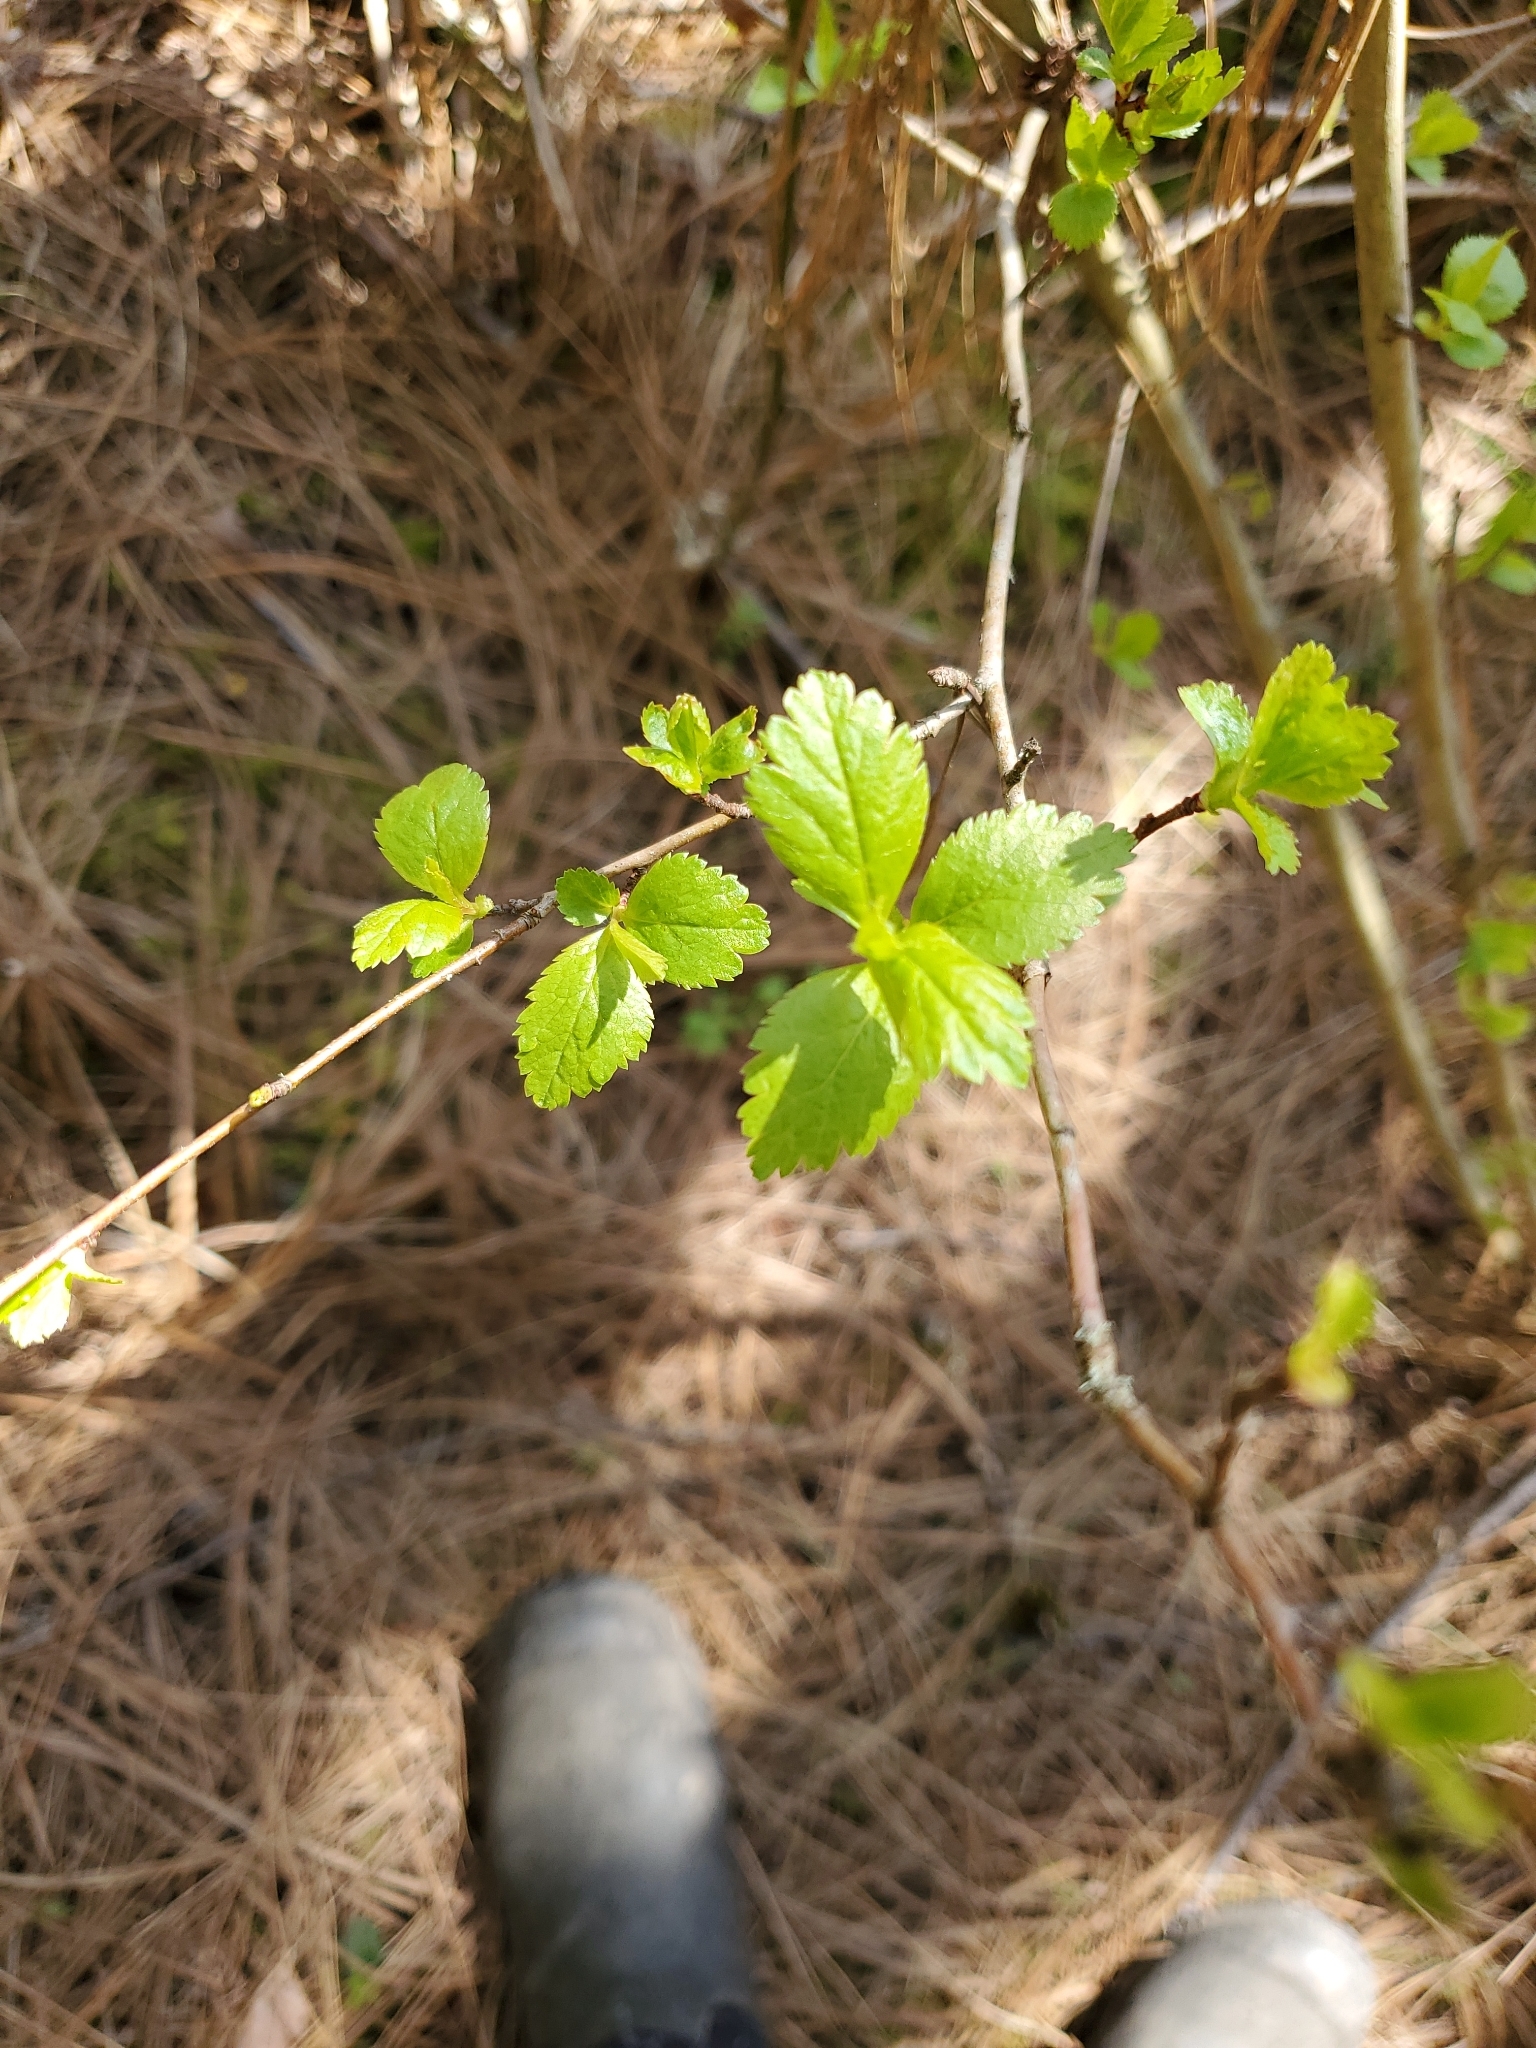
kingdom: Plantae
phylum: Tracheophyta
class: Magnoliopsida
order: Rosales
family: Rosaceae
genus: Crataegus
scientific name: Crataegus douglasii
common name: Black hawthorn
